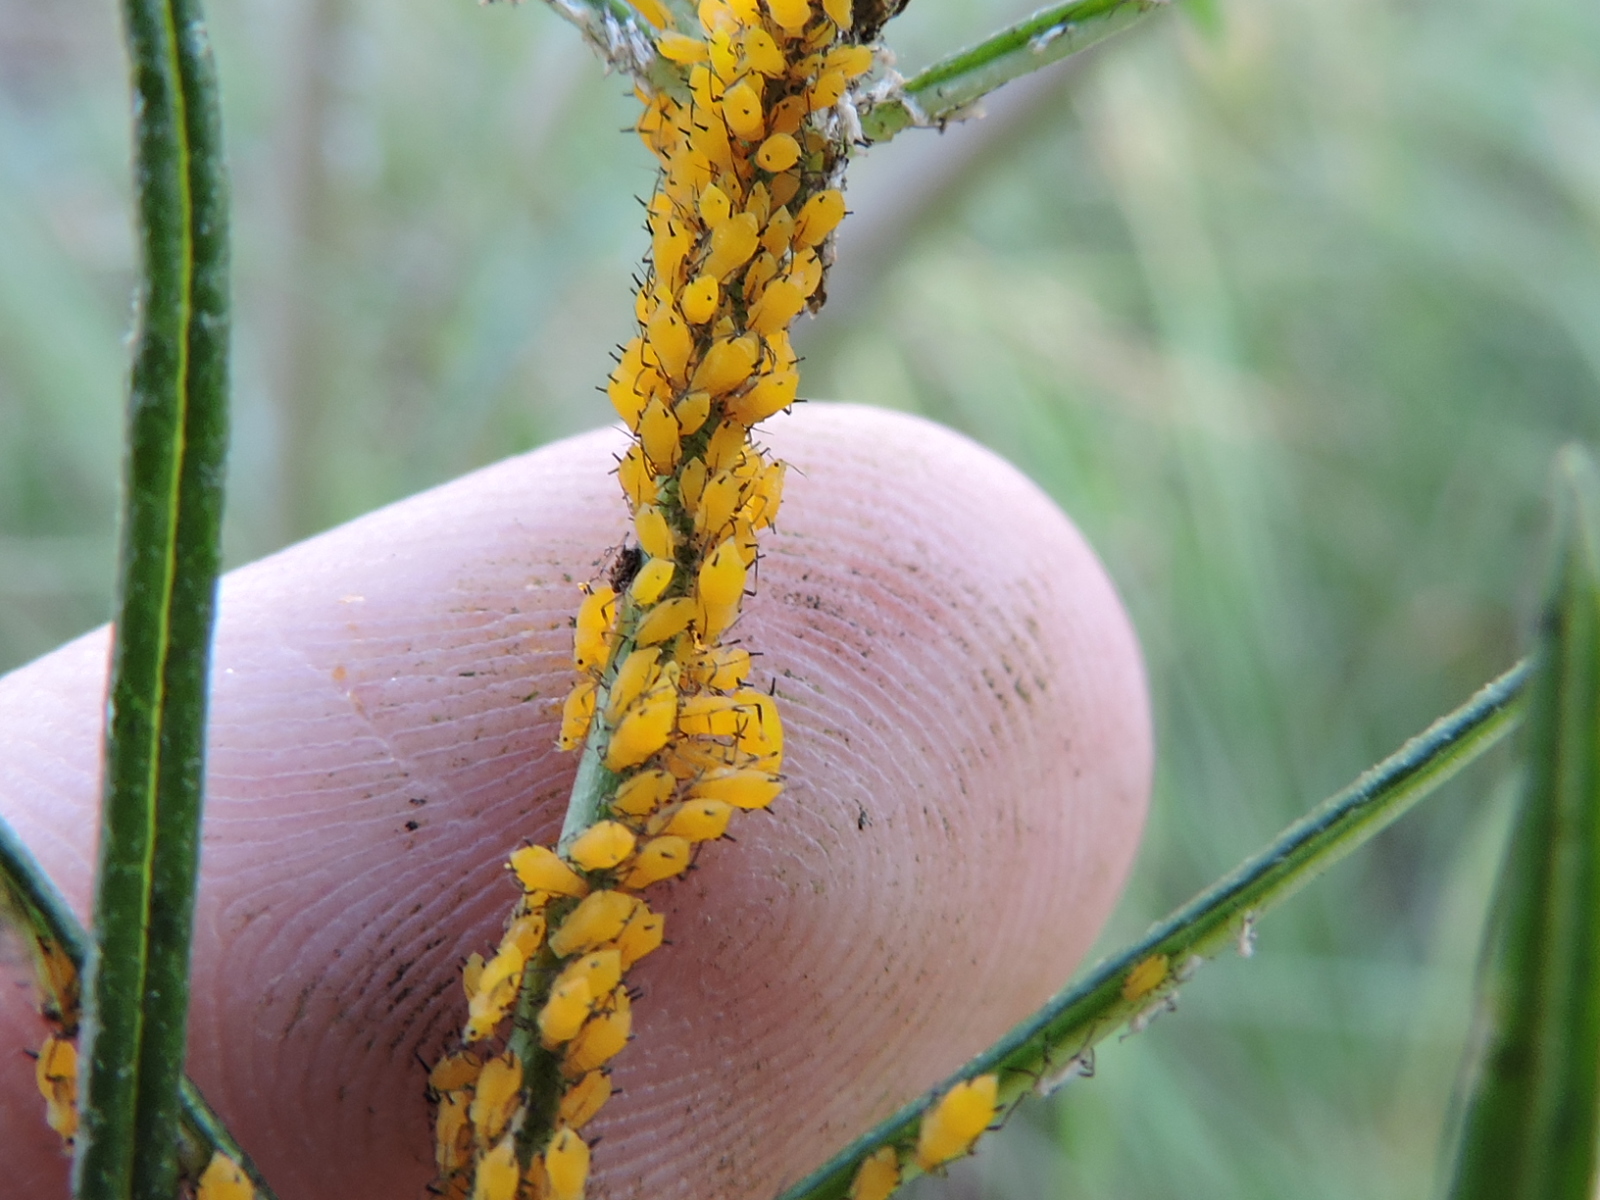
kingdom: Animalia
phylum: Arthropoda
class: Insecta
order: Hemiptera
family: Aphididae
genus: Aphis
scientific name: Aphis nerii
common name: Oleander aphid
